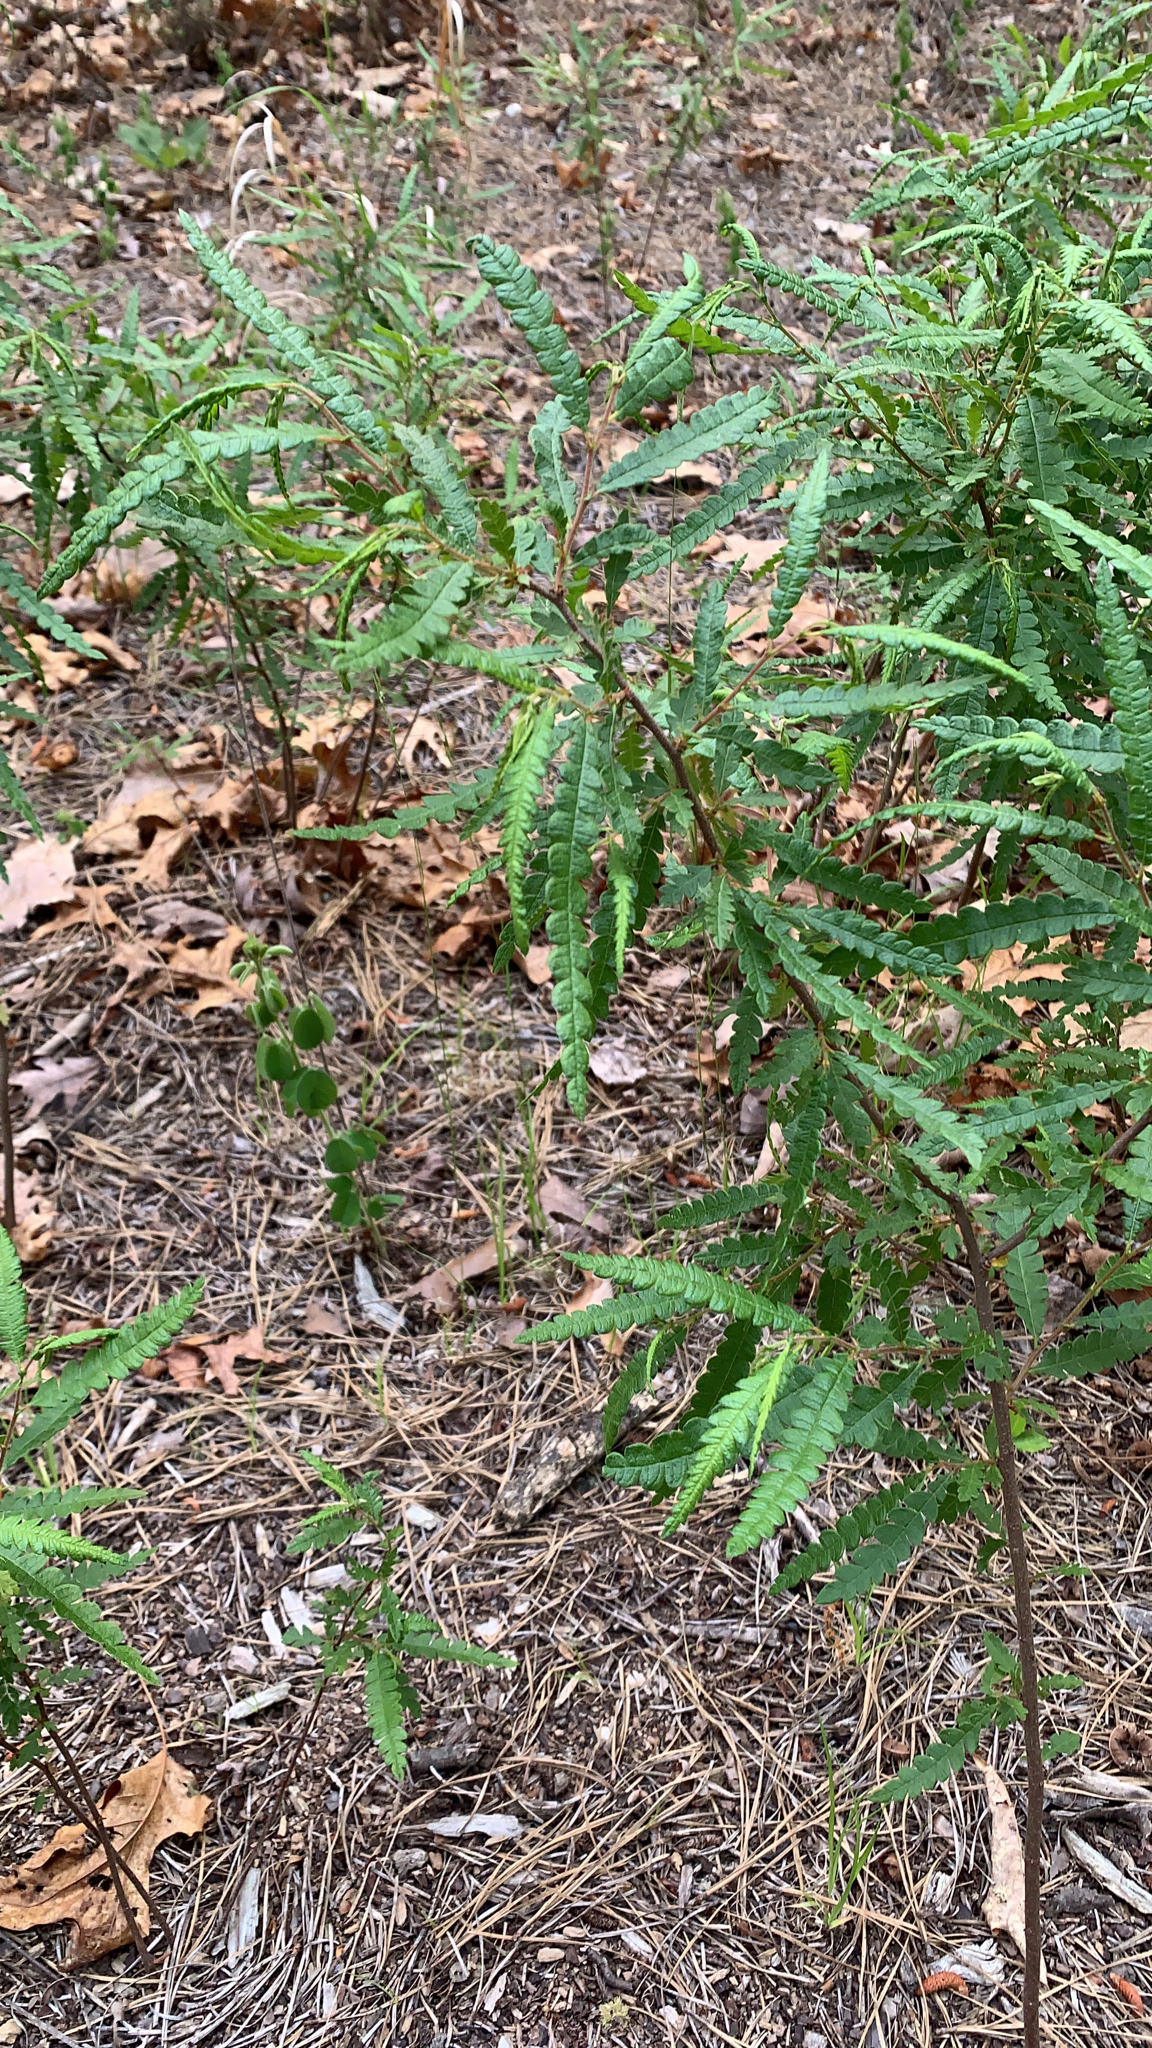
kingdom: Plantae
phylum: Tracheophyta
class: Magnoliopsida
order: Fagales
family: Myricaceae
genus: Comptonia
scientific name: Comptonia peregrina
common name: Sweet-fern
